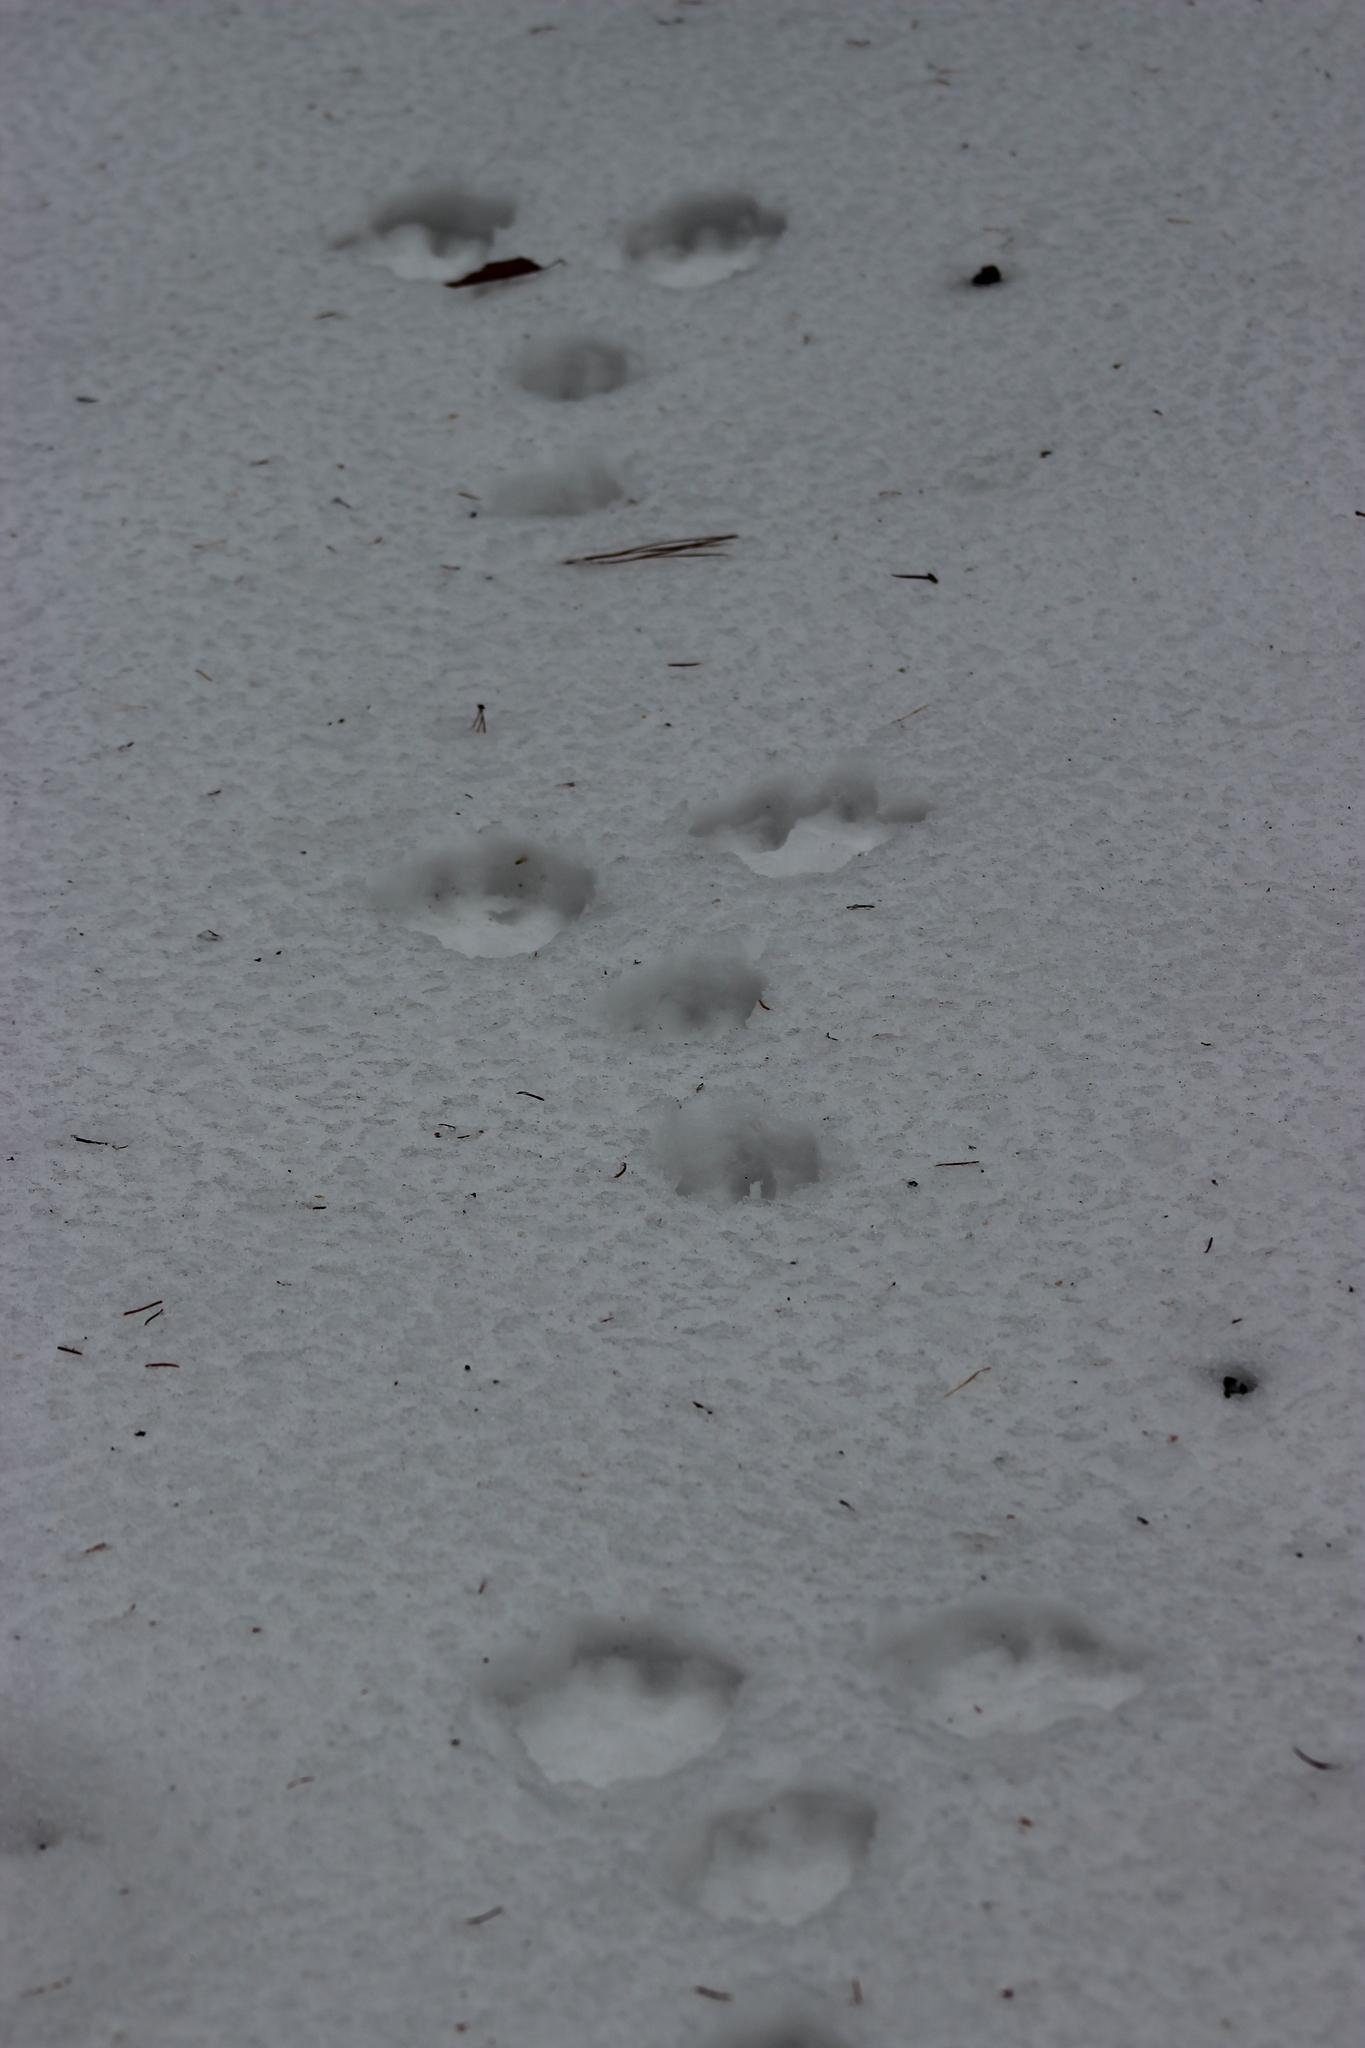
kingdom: Animalia
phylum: Chordata
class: Mammalia
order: Lagomorpha
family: Leporidae
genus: Lepus
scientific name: Lepus timidus
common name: Mountain hare
